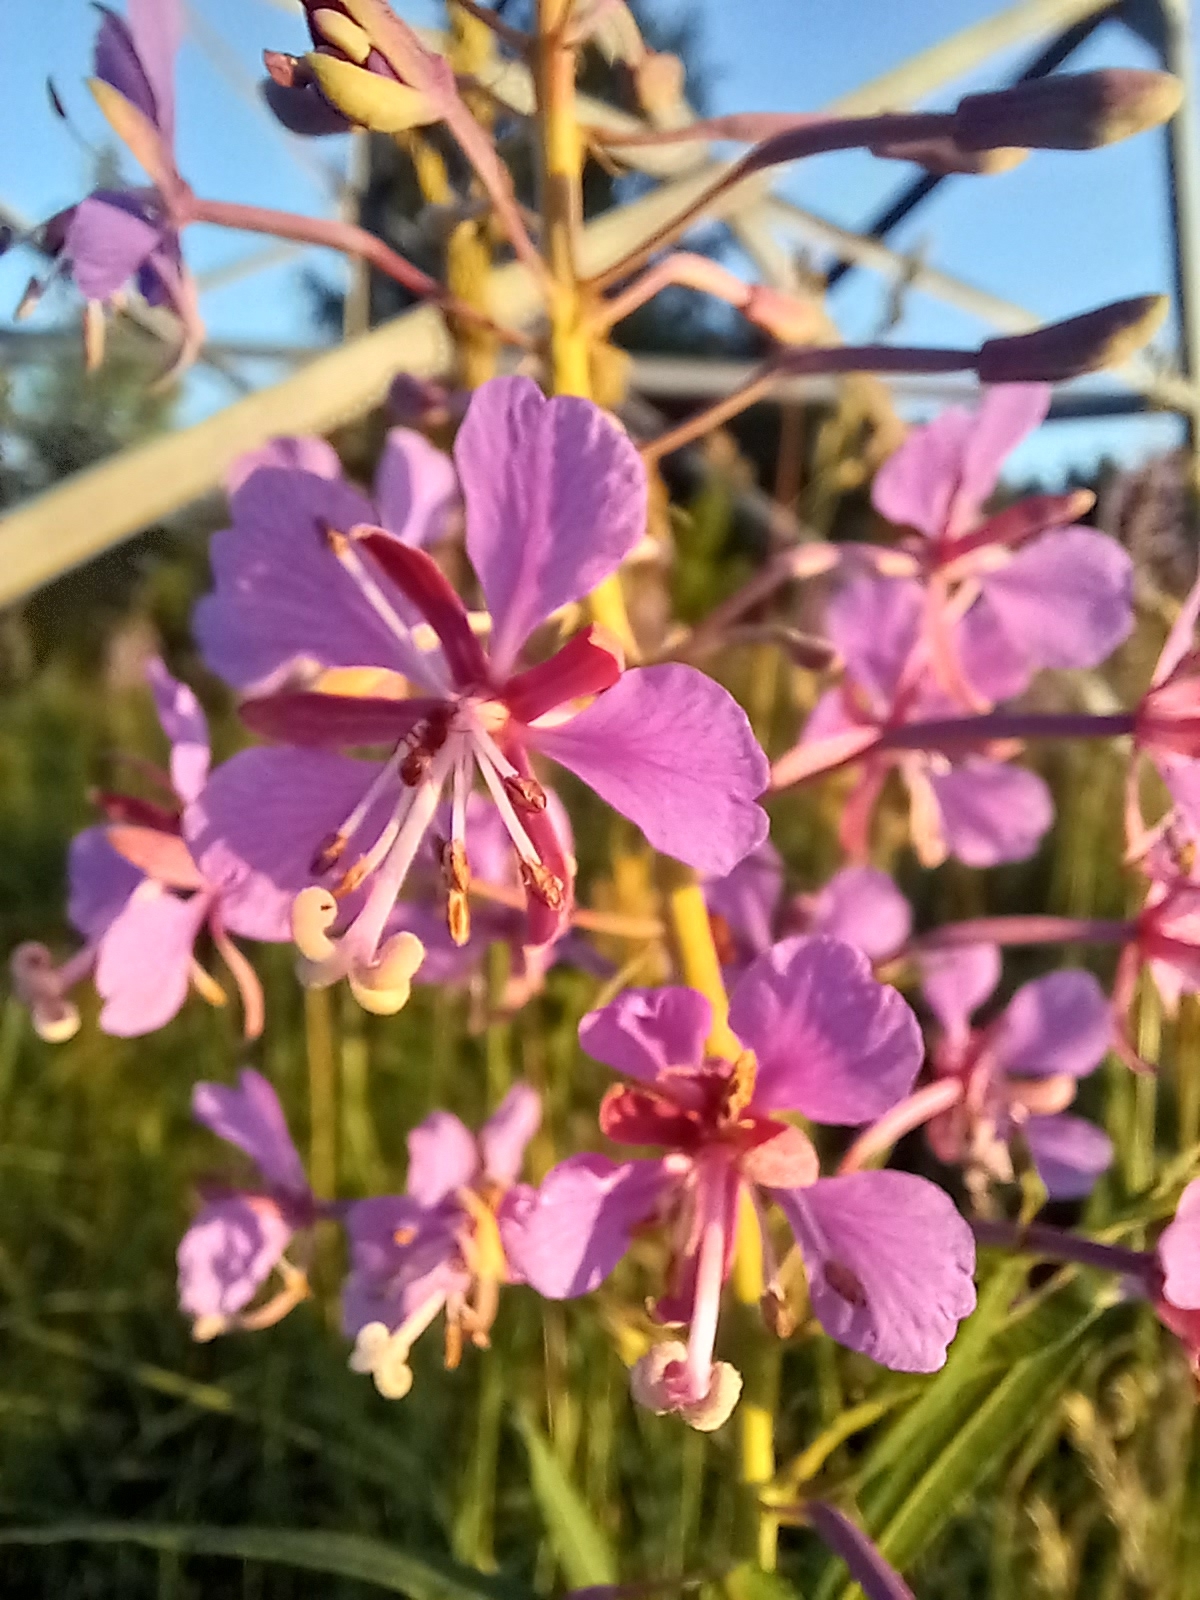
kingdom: Plantae
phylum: Tracheophyta
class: Magnoliopsida
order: Myrtales
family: Onagraceae
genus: Chamaenerion
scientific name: Chamaenerion angustifolium
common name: Fireweed
